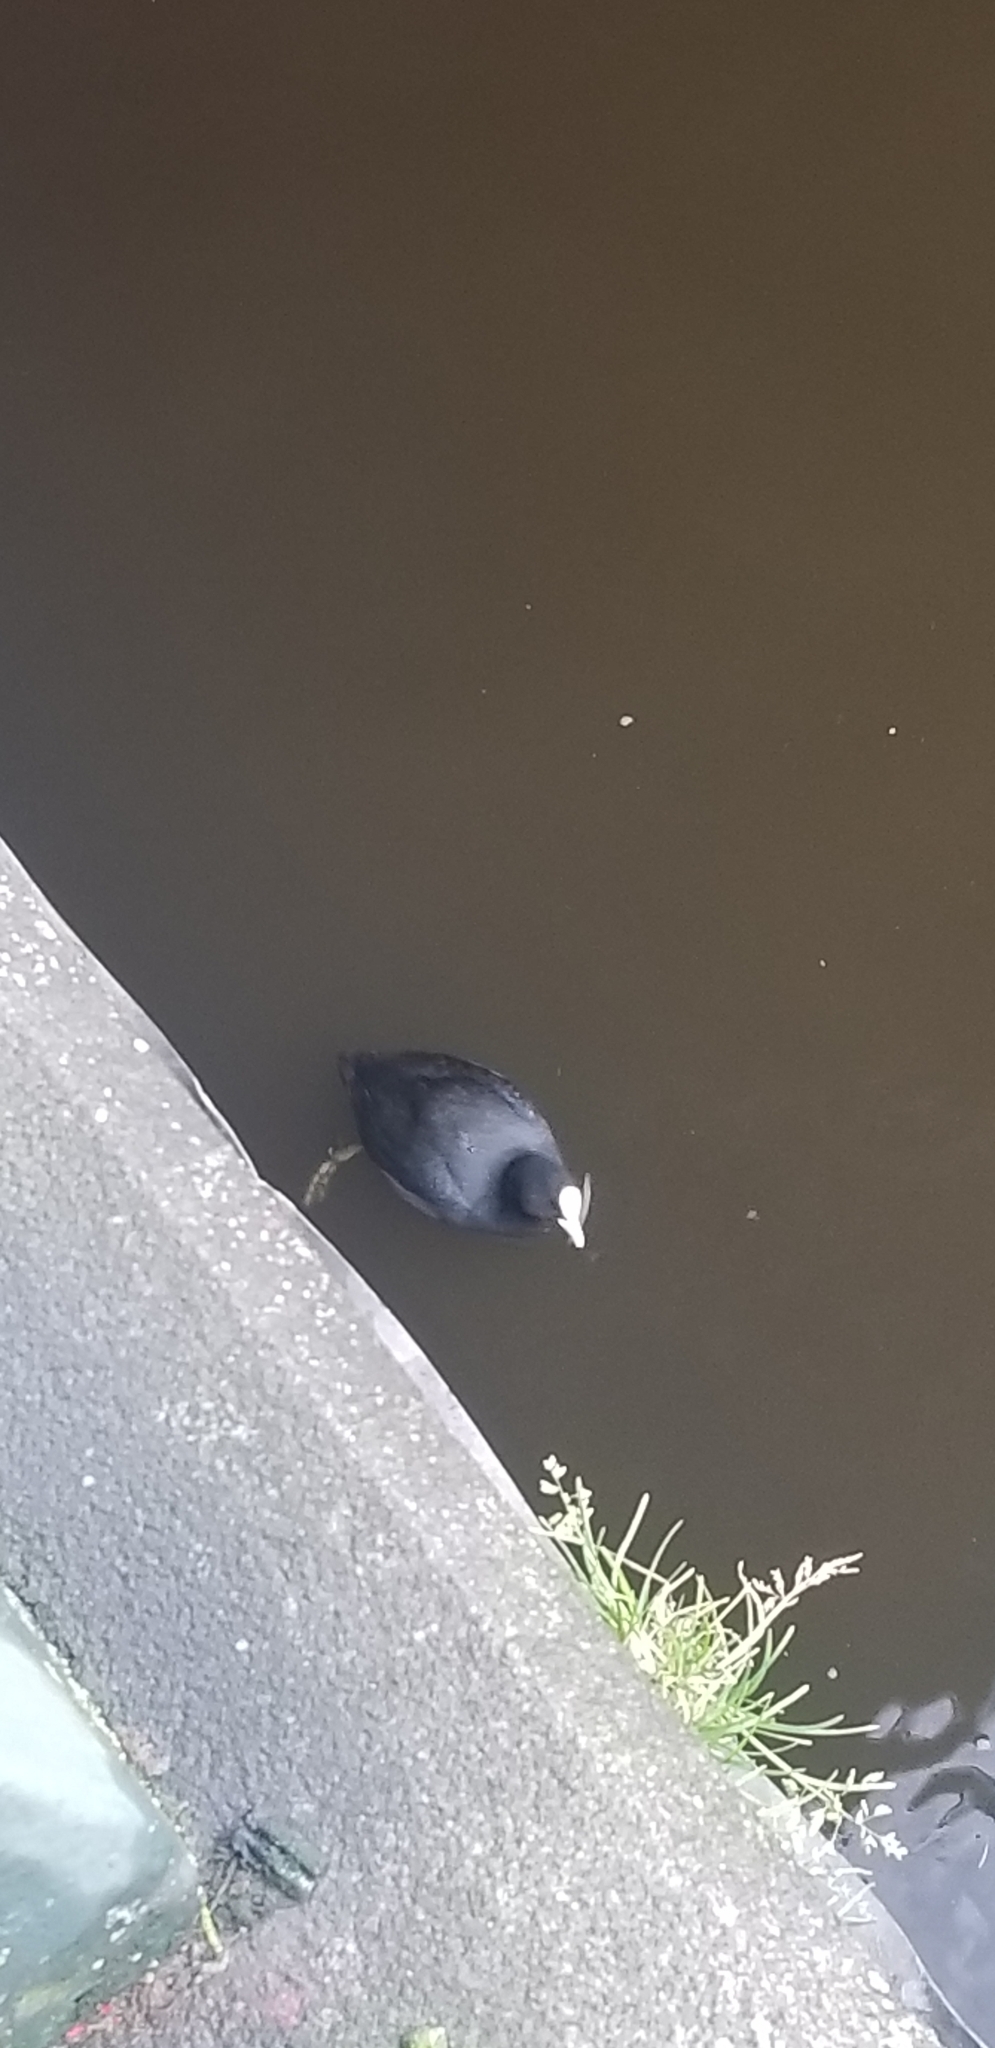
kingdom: Animalia
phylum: Chordata
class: Aves
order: Gruiformes
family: Rallidae
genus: Fulica
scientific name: Fulica atra
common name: Eurasian coot
